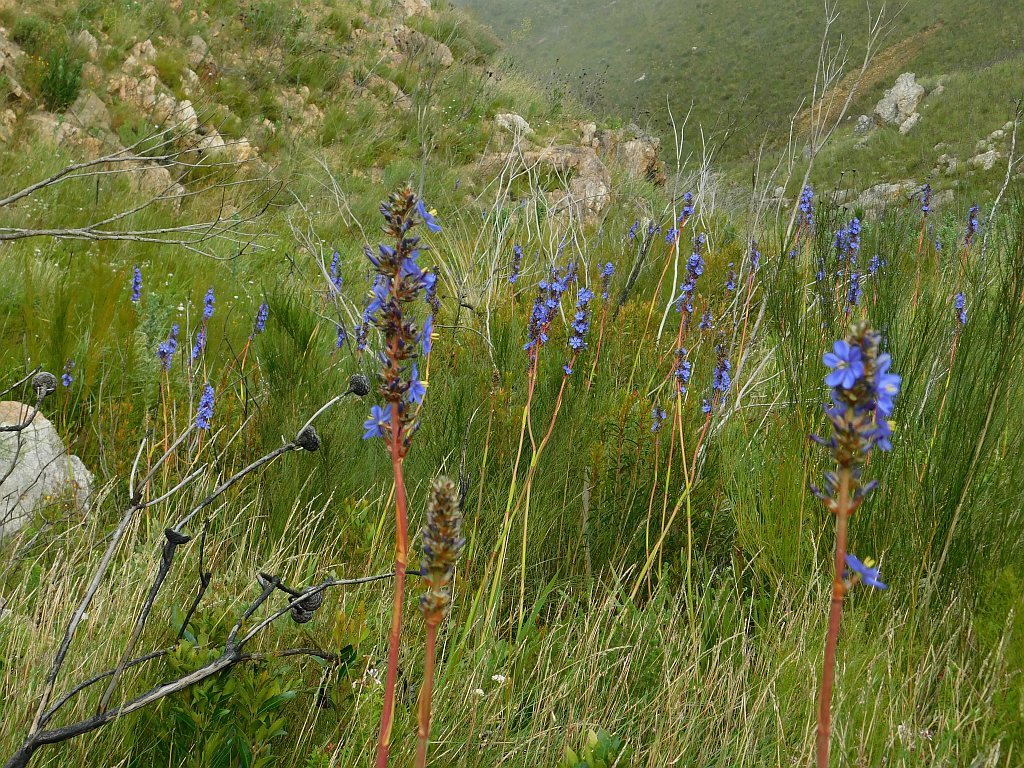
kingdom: Plantae
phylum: Tracheophyta
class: Liliopsida
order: Asparagales
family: Iridaceae
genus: Aristea
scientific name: Aristea capitata
